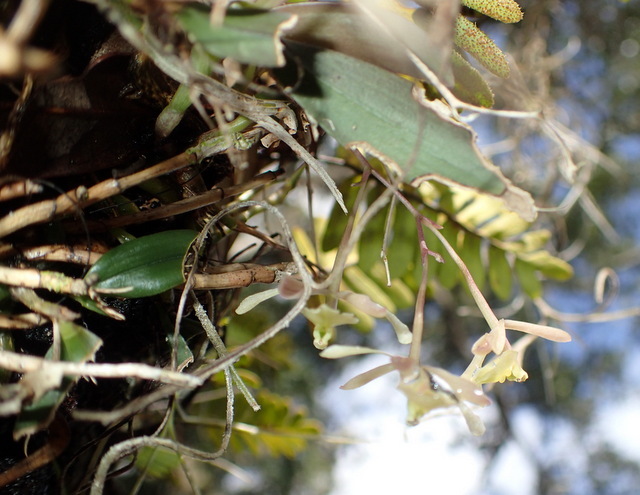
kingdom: Plantae
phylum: Tracheophyta
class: Liliopsida
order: Asparagales
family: Orchidaceae
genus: Epidendrum
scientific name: Epidendrum conopseum
